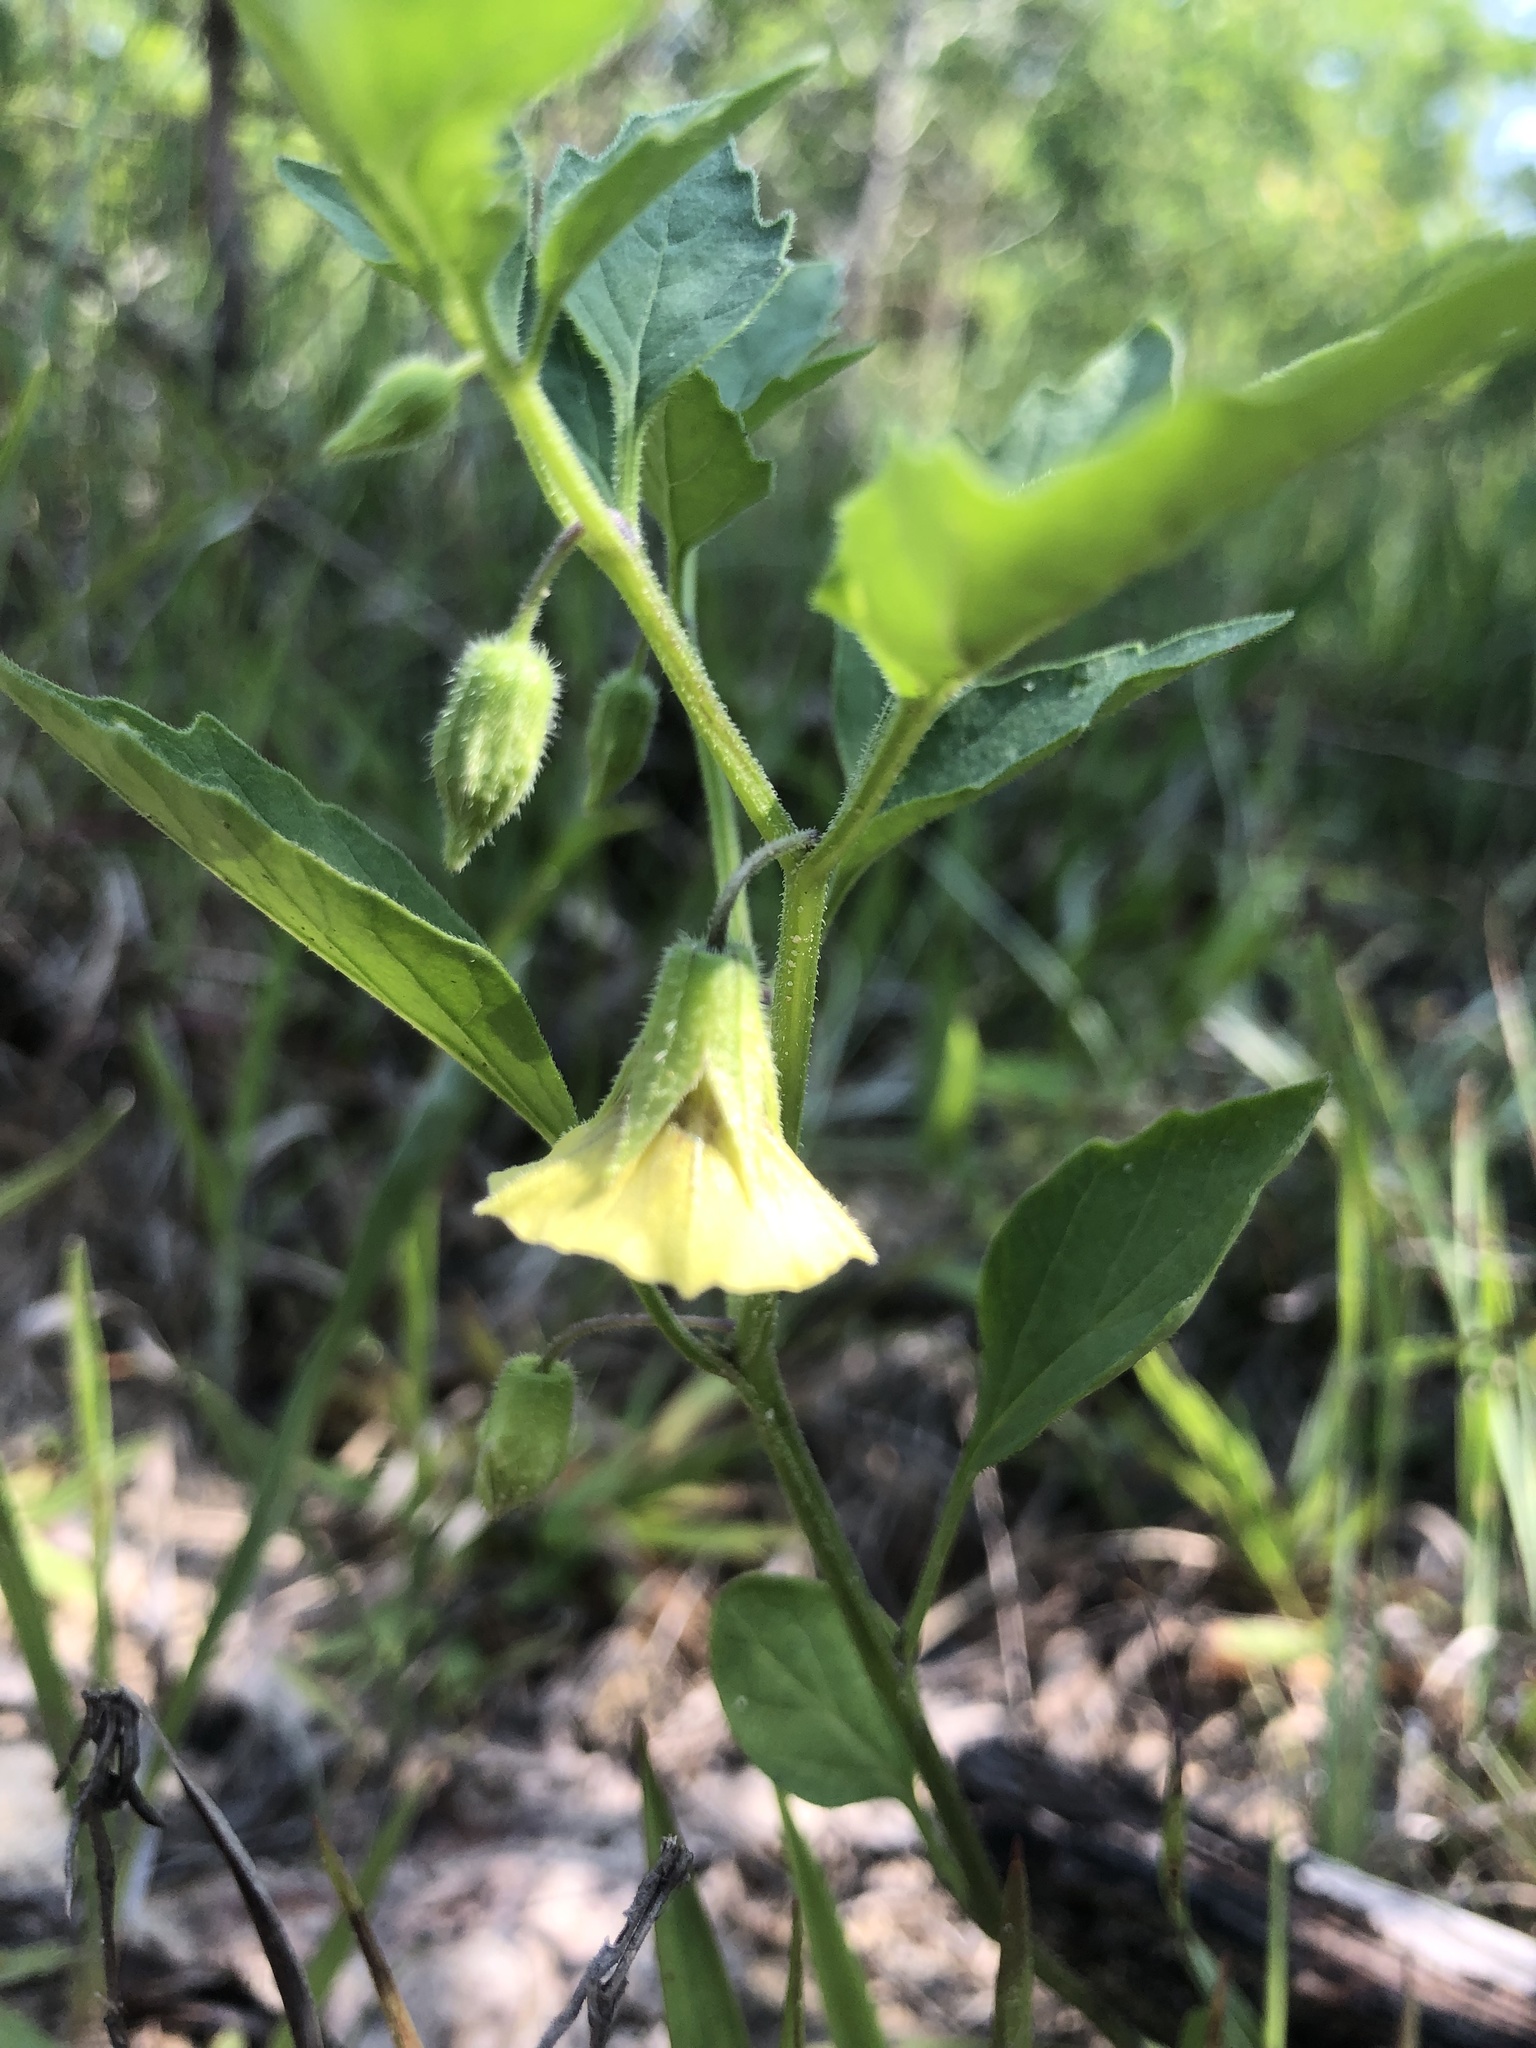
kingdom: Plantae
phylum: Tracheophyta
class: Magnoliopsida
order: Solanales
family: Solanaceae
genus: Physalis
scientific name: Physalis virginiana
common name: Virginia ground-cherry
